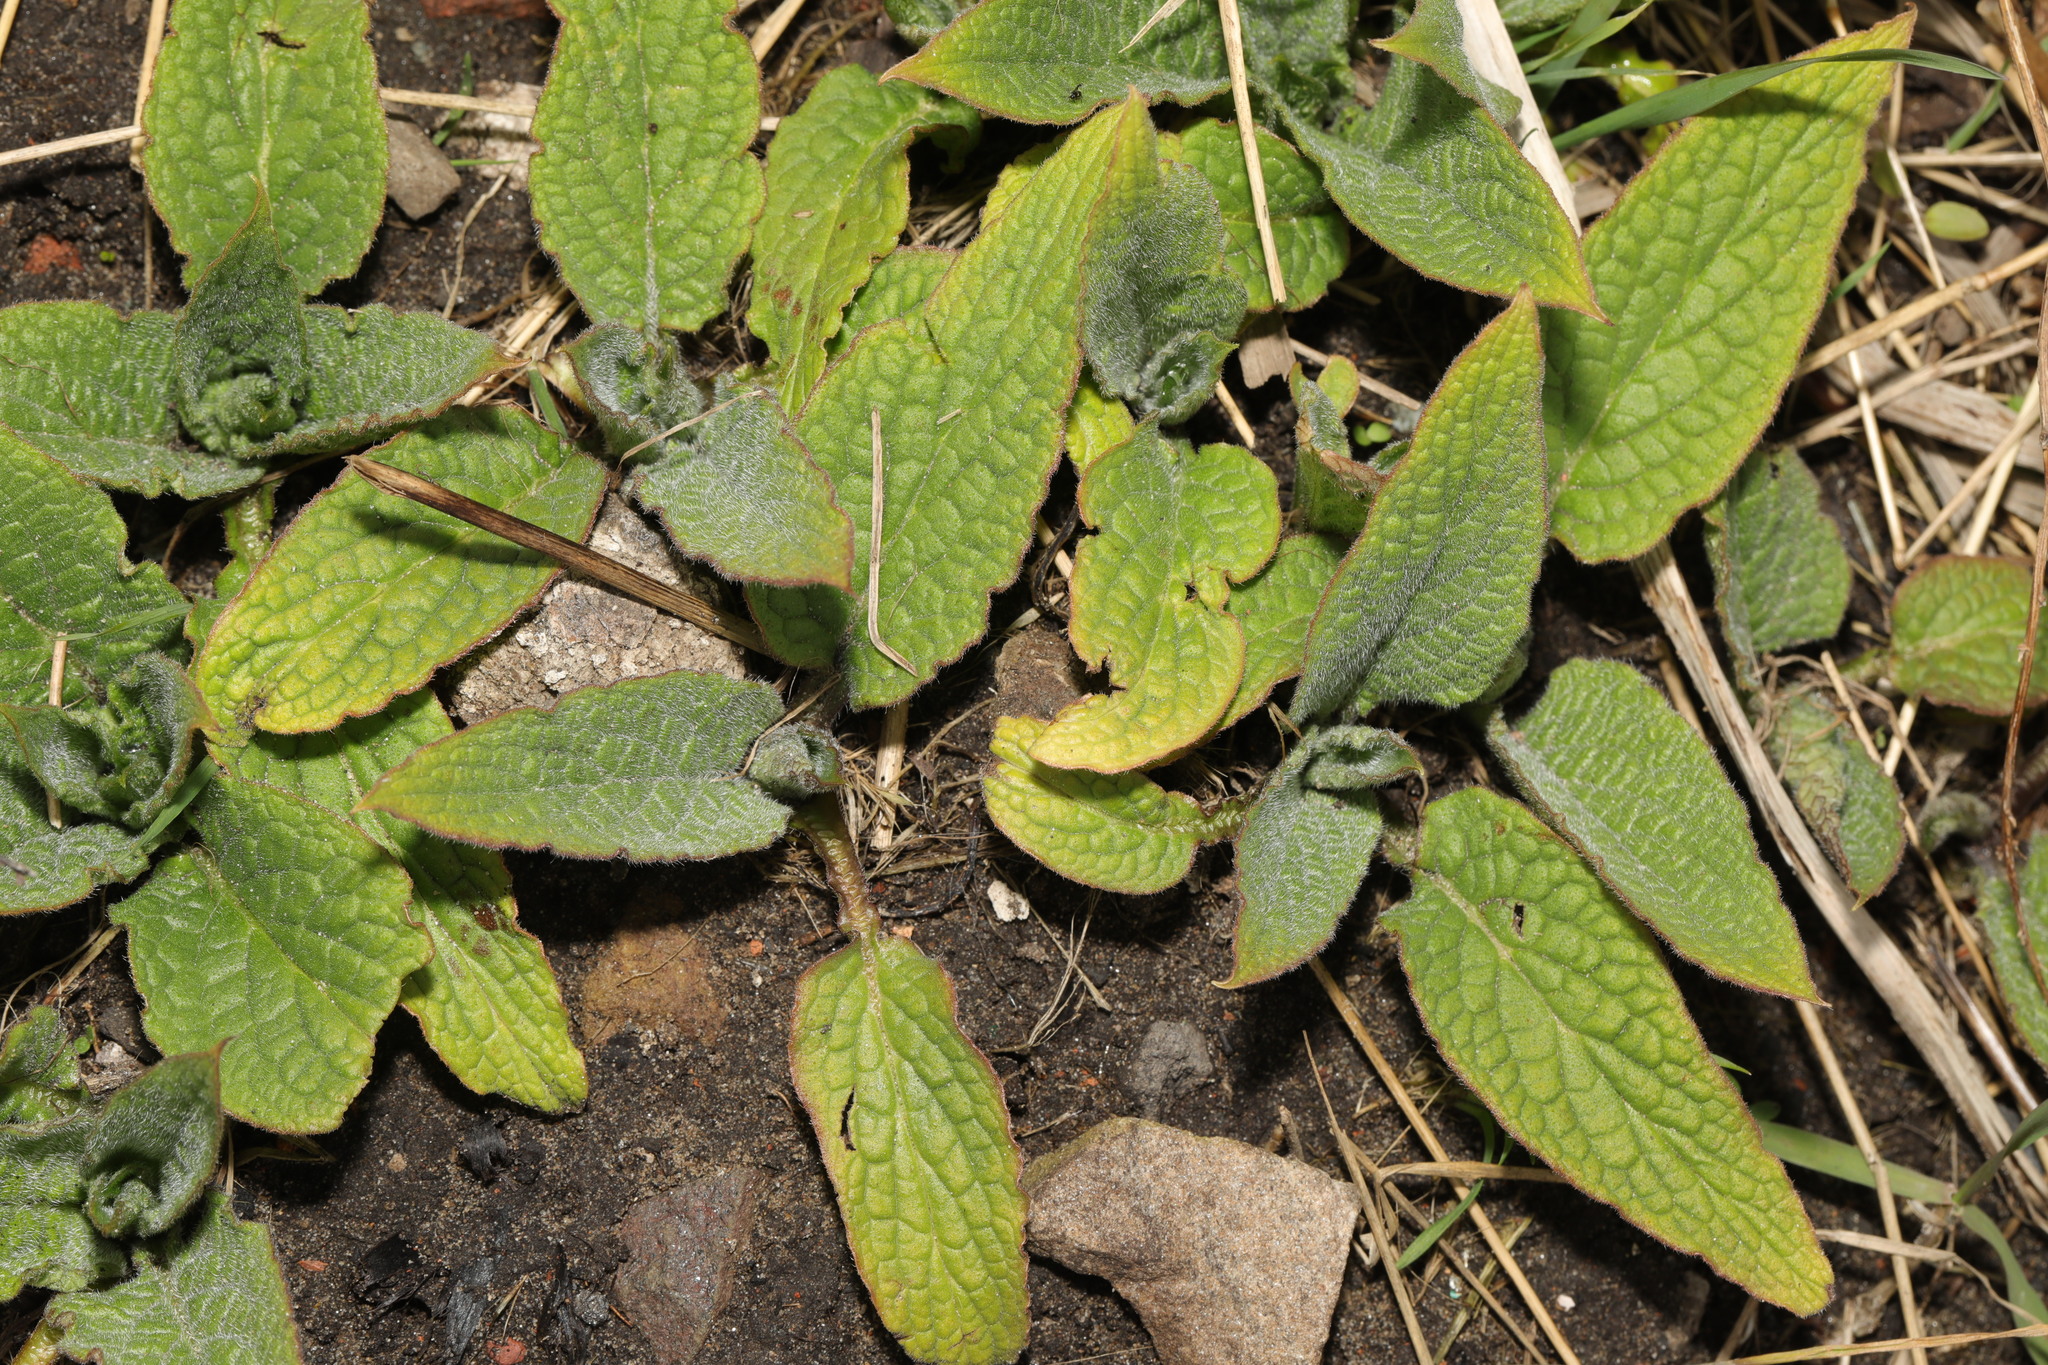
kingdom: Plantae
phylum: Tracheophyta
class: Magnoliopsida
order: Boraginales
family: Boraginaceae
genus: Symphytum
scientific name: Symphytum uplandicum
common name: Russian comfrey
